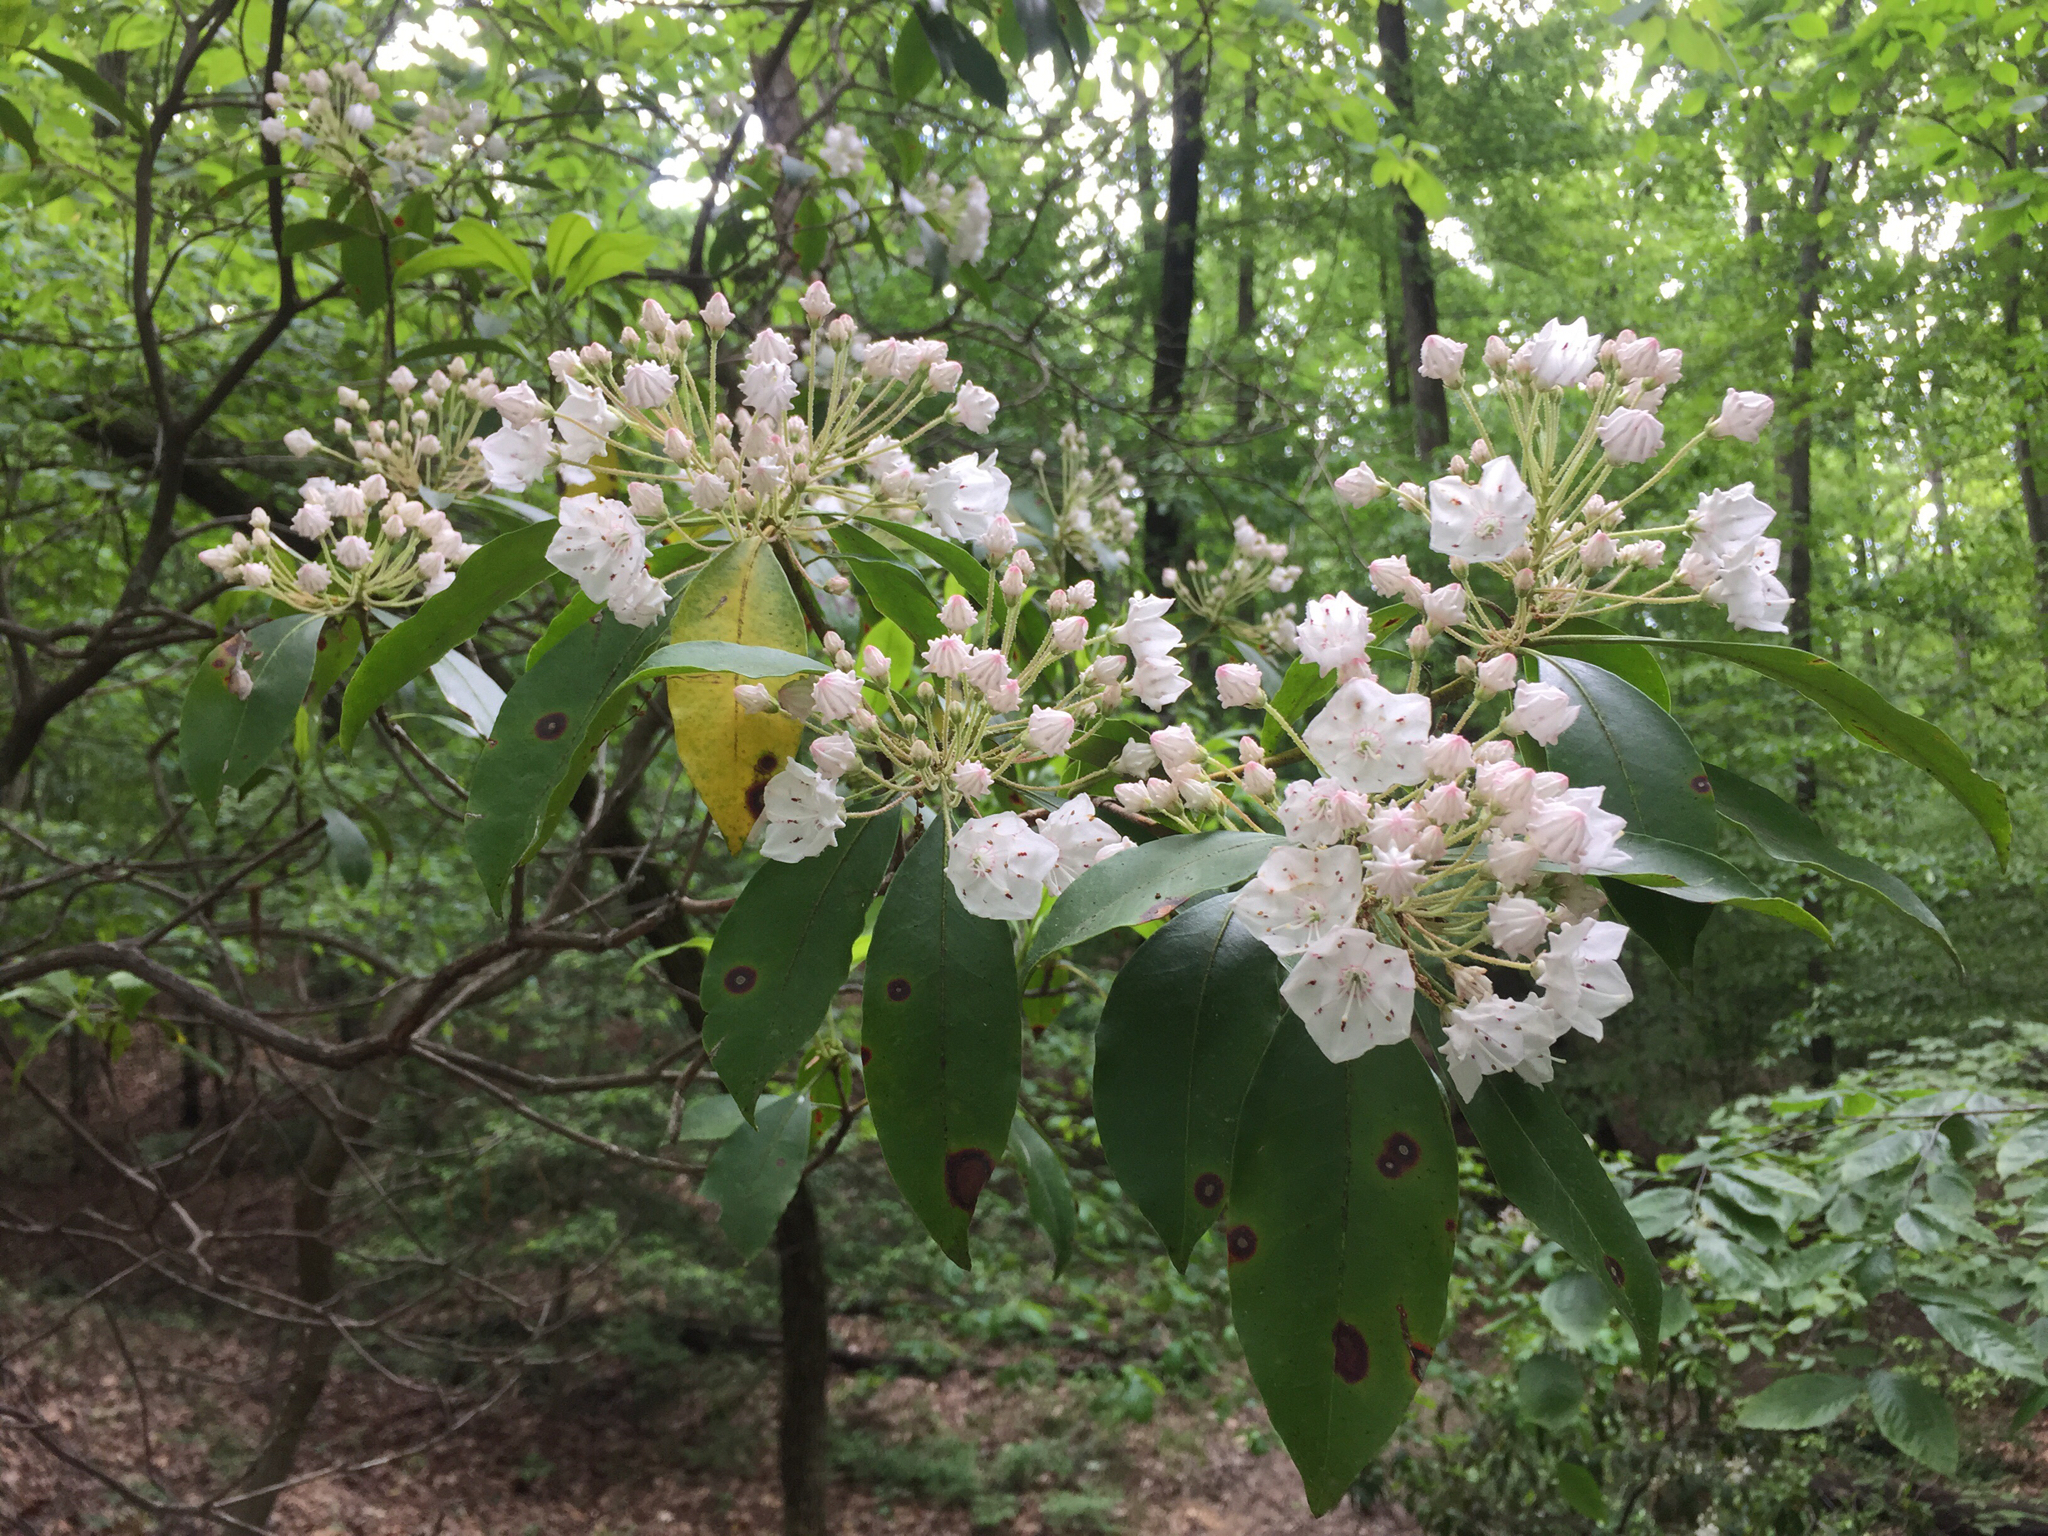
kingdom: Plantae
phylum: Tracheophyta
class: Magnoliopsida
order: Ericales
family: Ericaceae
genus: Kalmia
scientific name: Kalmia latifolia
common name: Mountain-laurel
